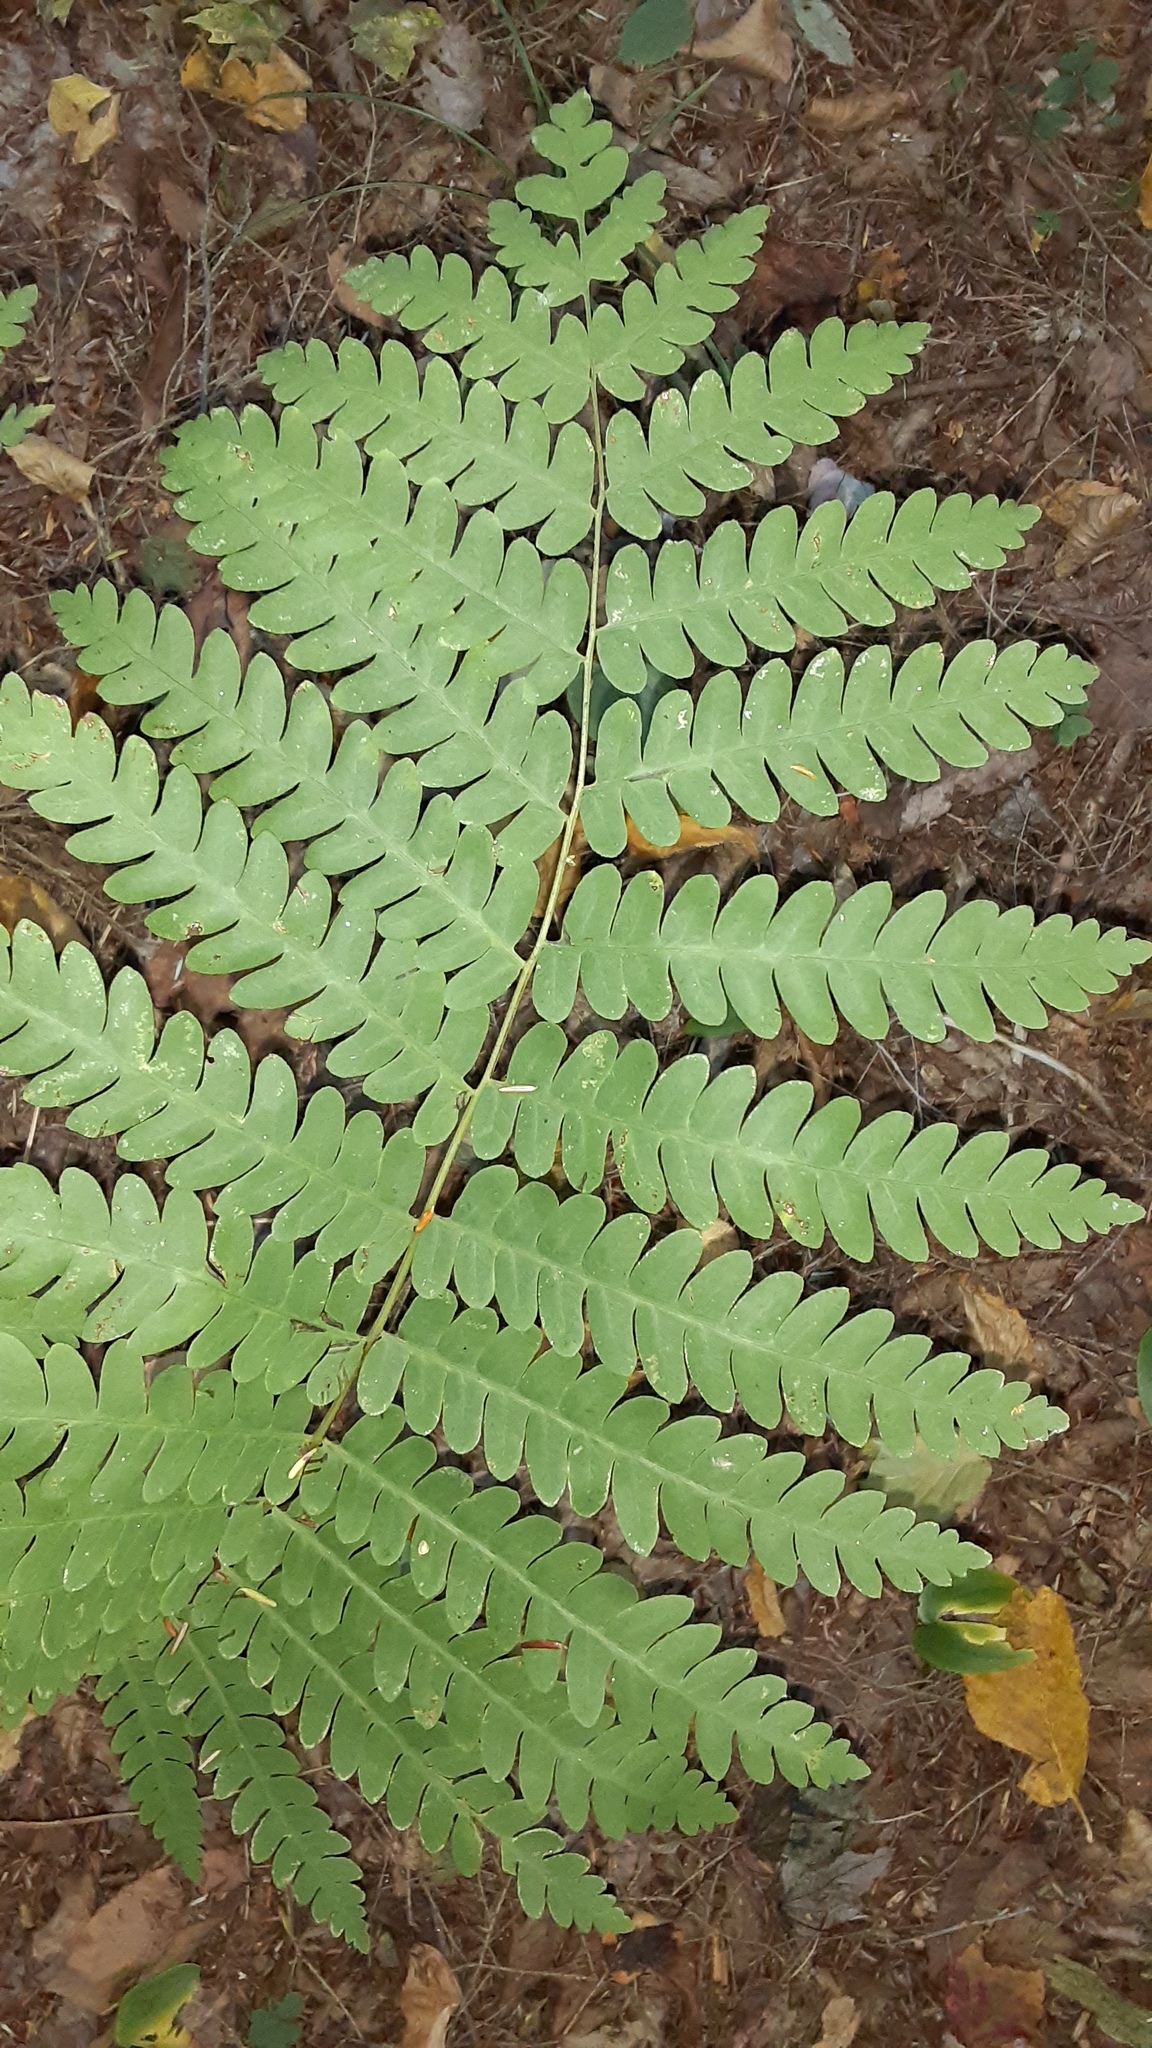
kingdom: Plantae
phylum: Tracheophyta
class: Polypodiopsida
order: Osmundales
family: Osmundaceae
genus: Osmundastrum
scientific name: Osmundastrum cinnamomeum
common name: Cinnamon fern
